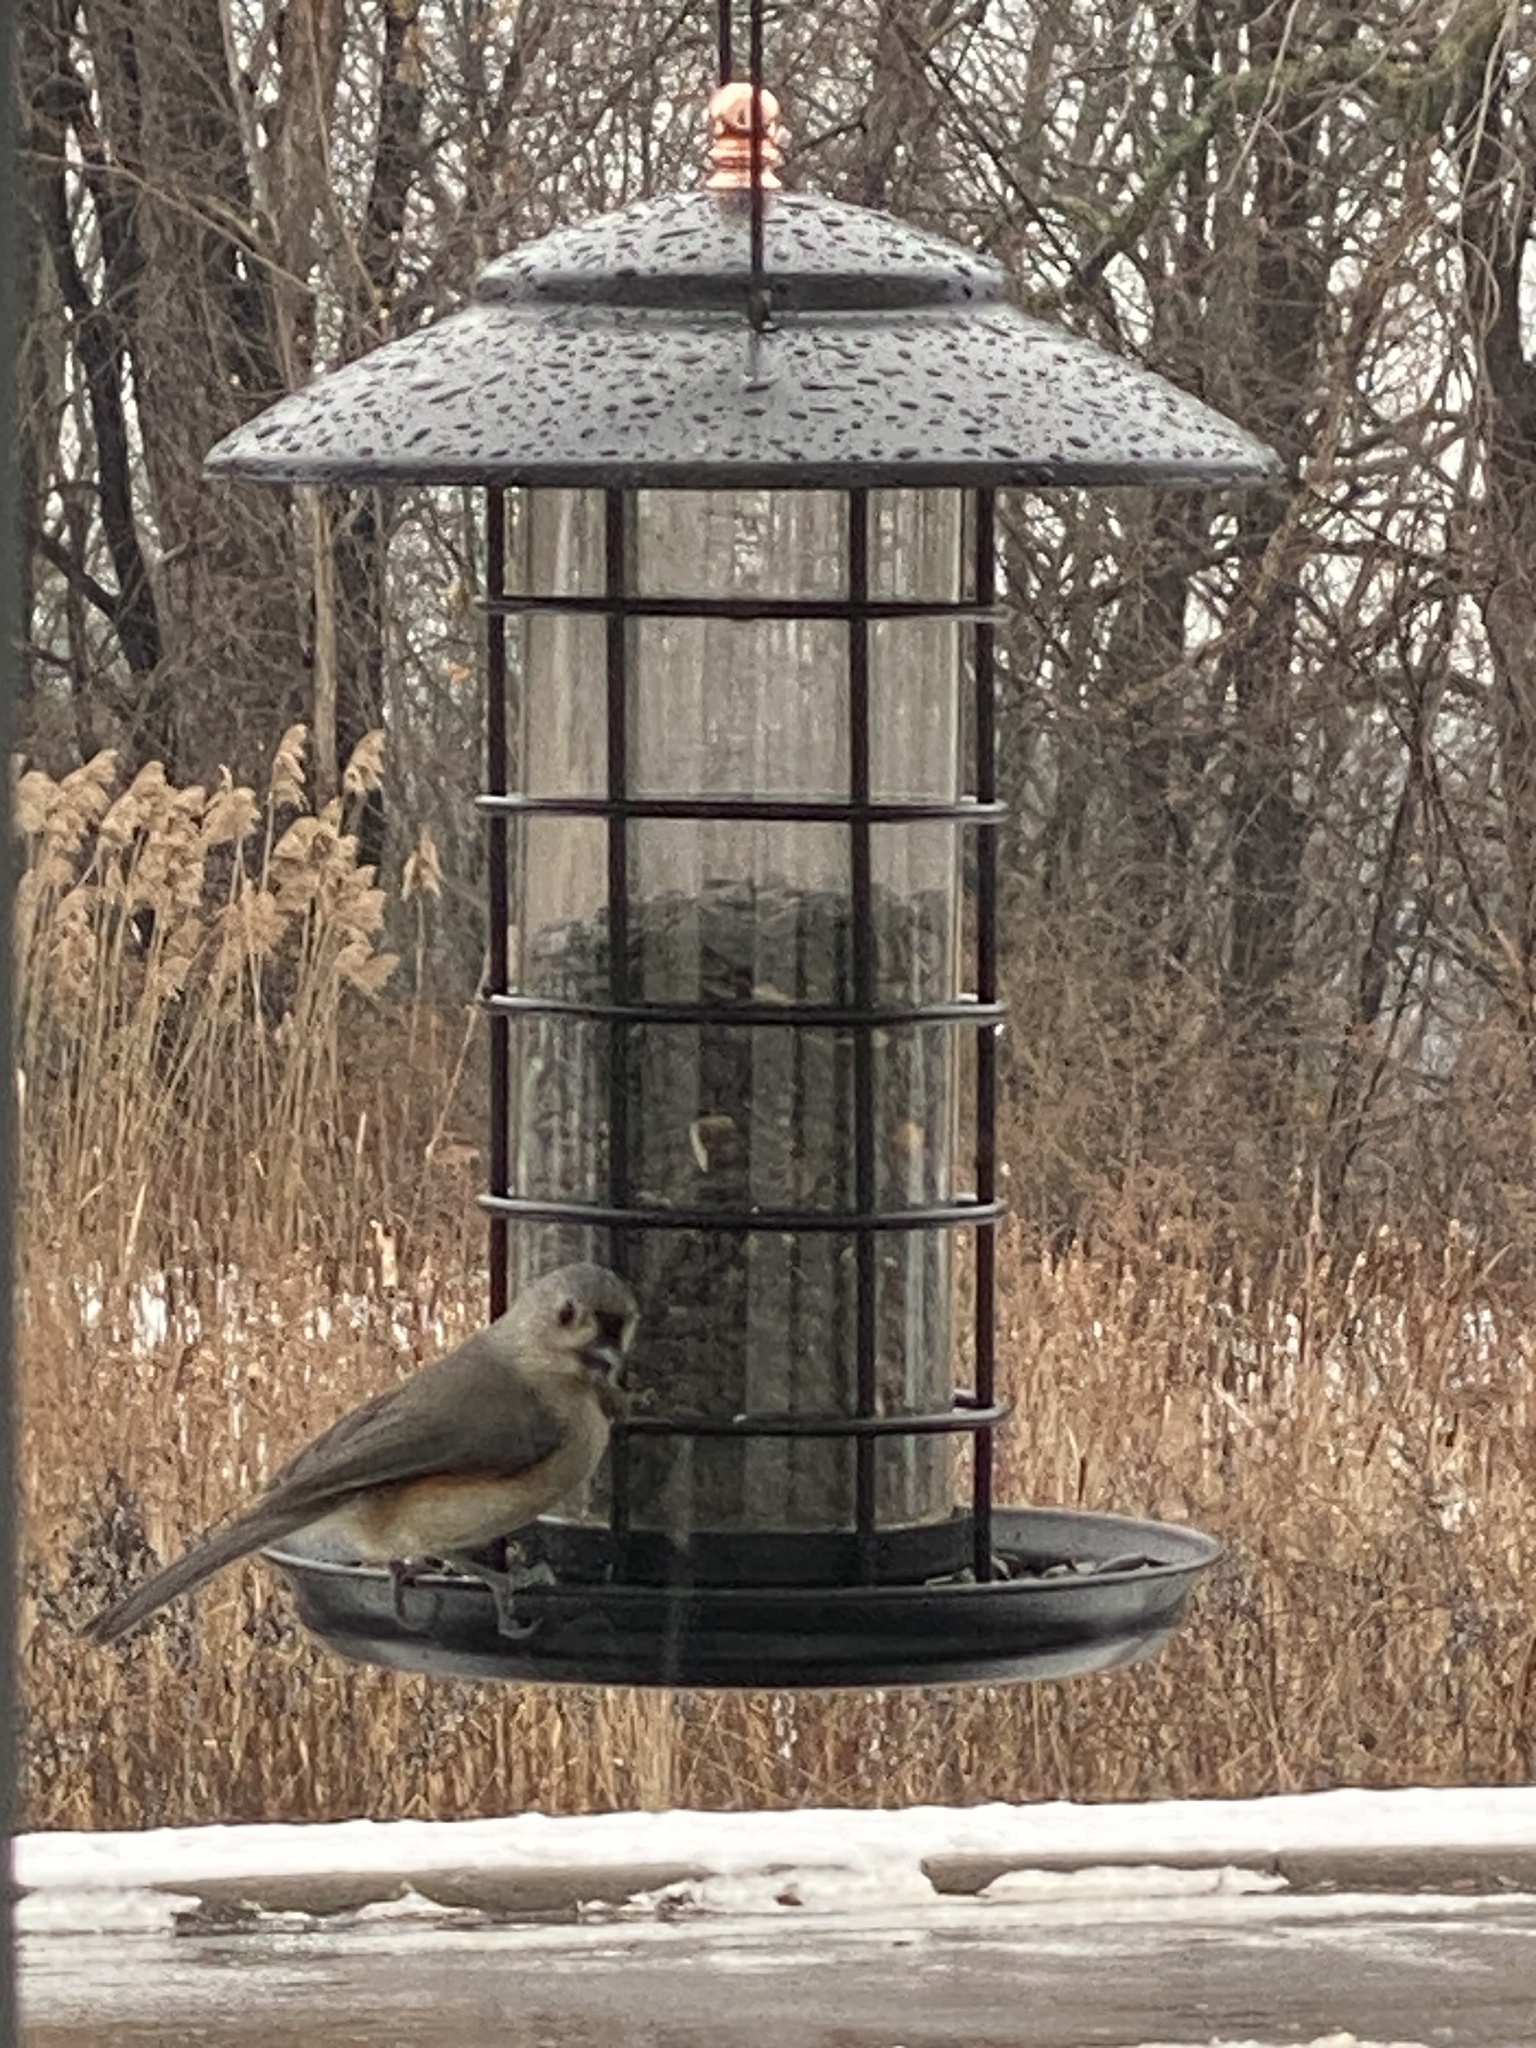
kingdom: Animalia
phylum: Chordata
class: Aves
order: Passeriformes
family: Paridae
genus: Baeolophus
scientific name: Baeolophus bicolor
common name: Tufted titmouse
